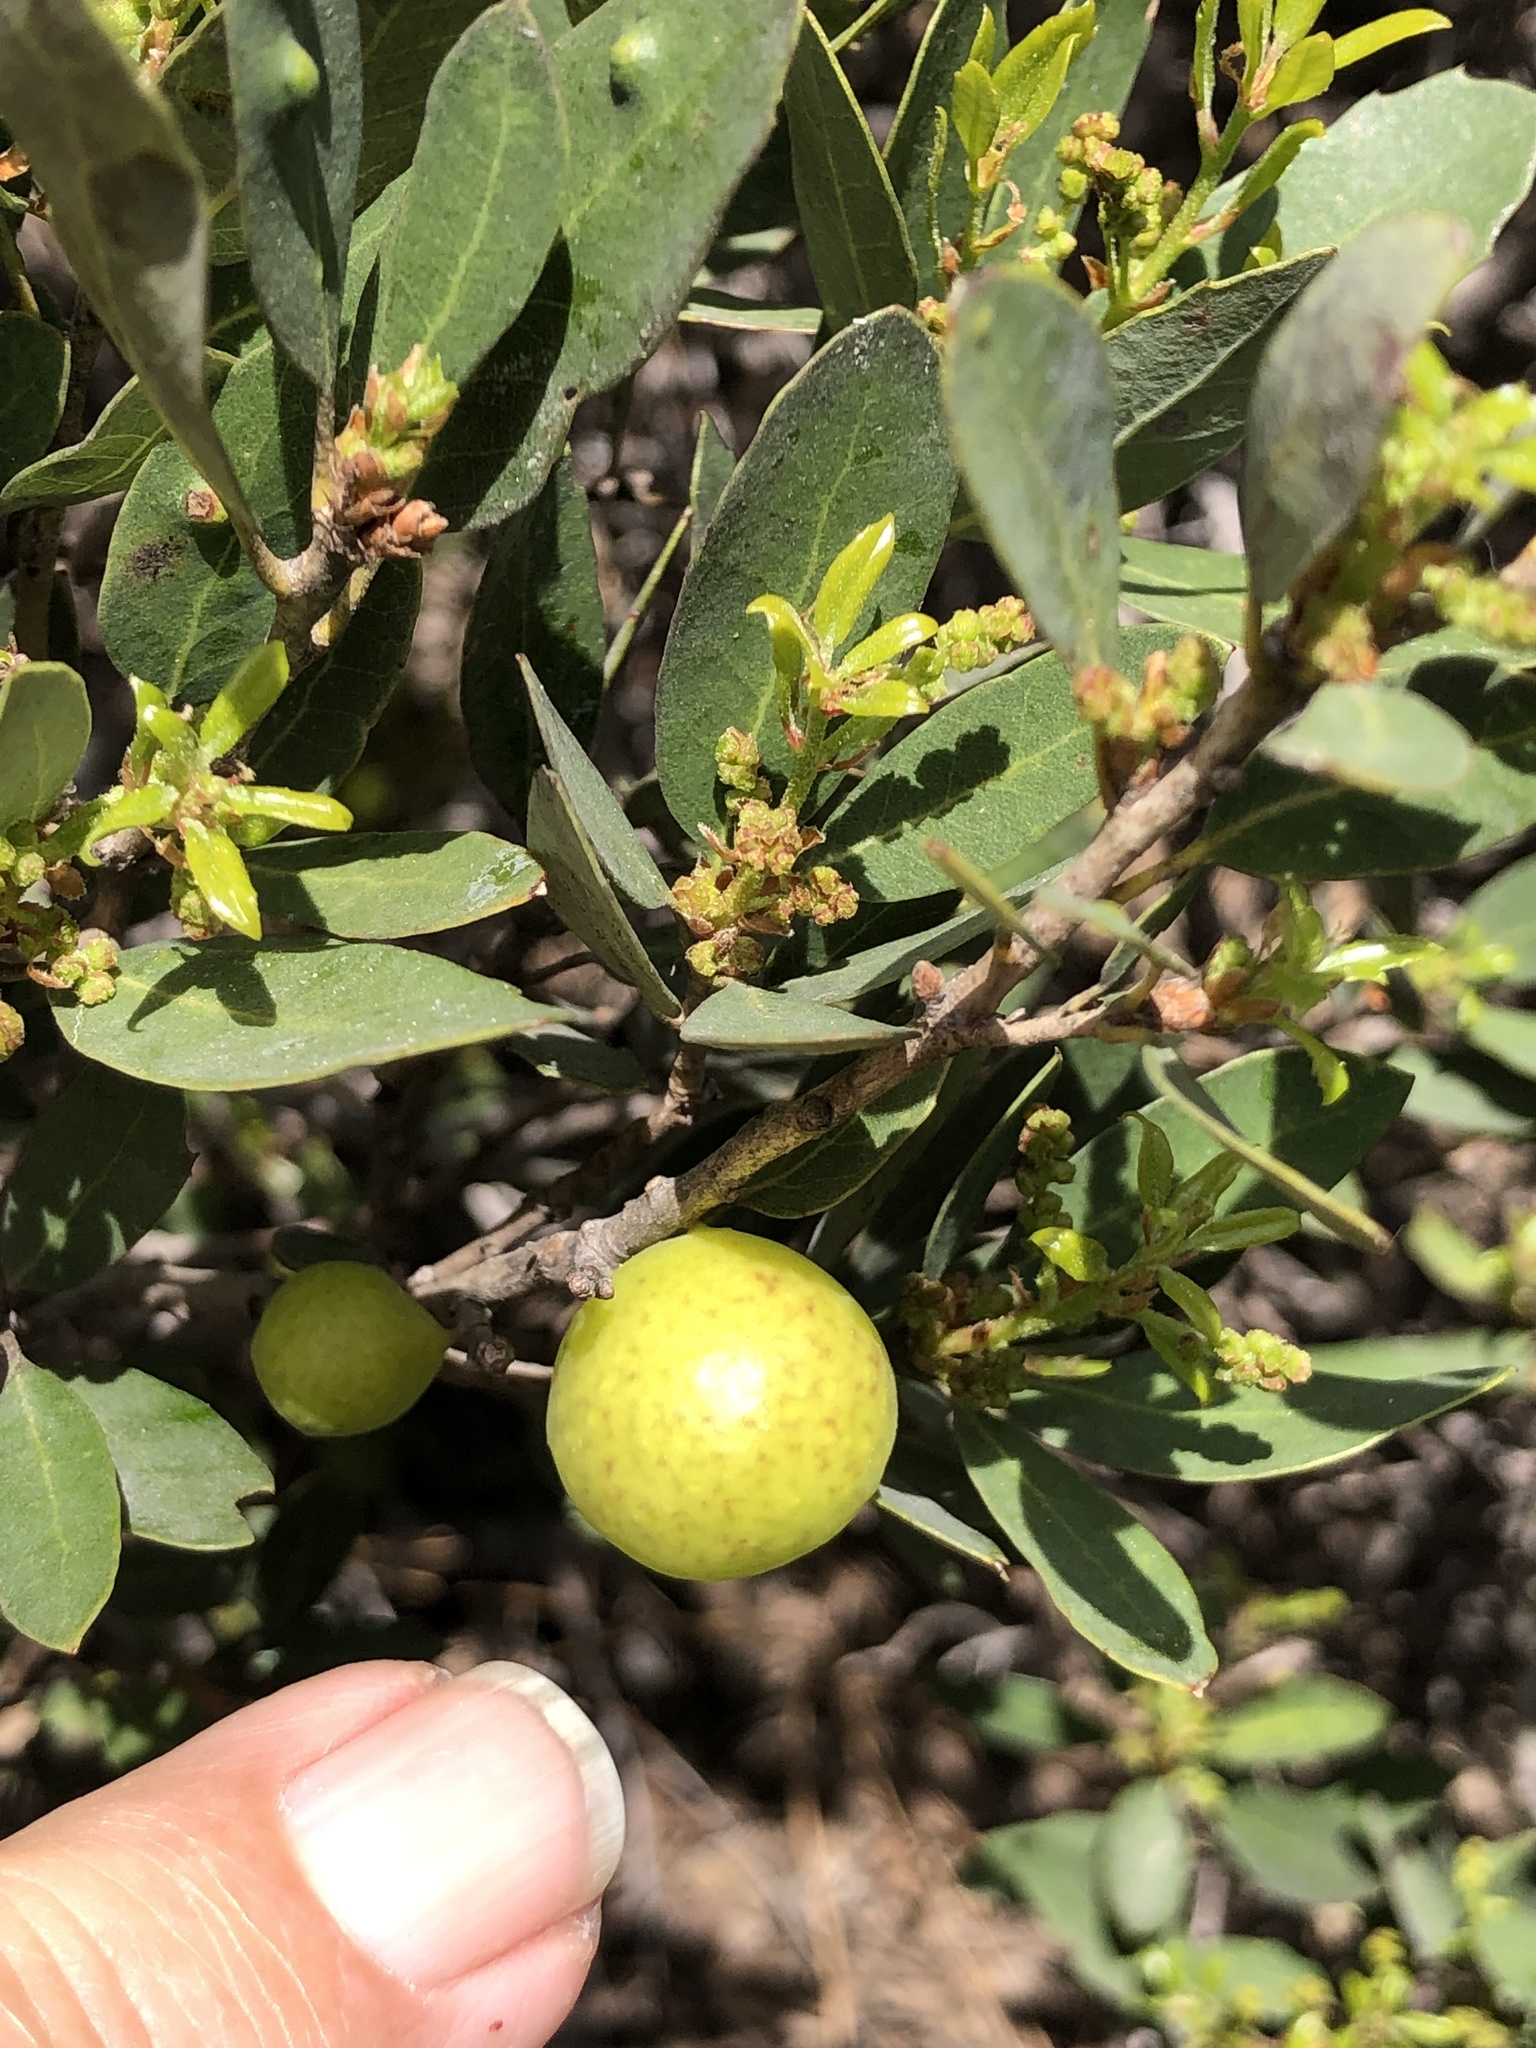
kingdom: Animalia
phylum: Arthropoda
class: Insecta
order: Hymenoptera
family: Cynipidae
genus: Andricus
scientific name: Andricus
